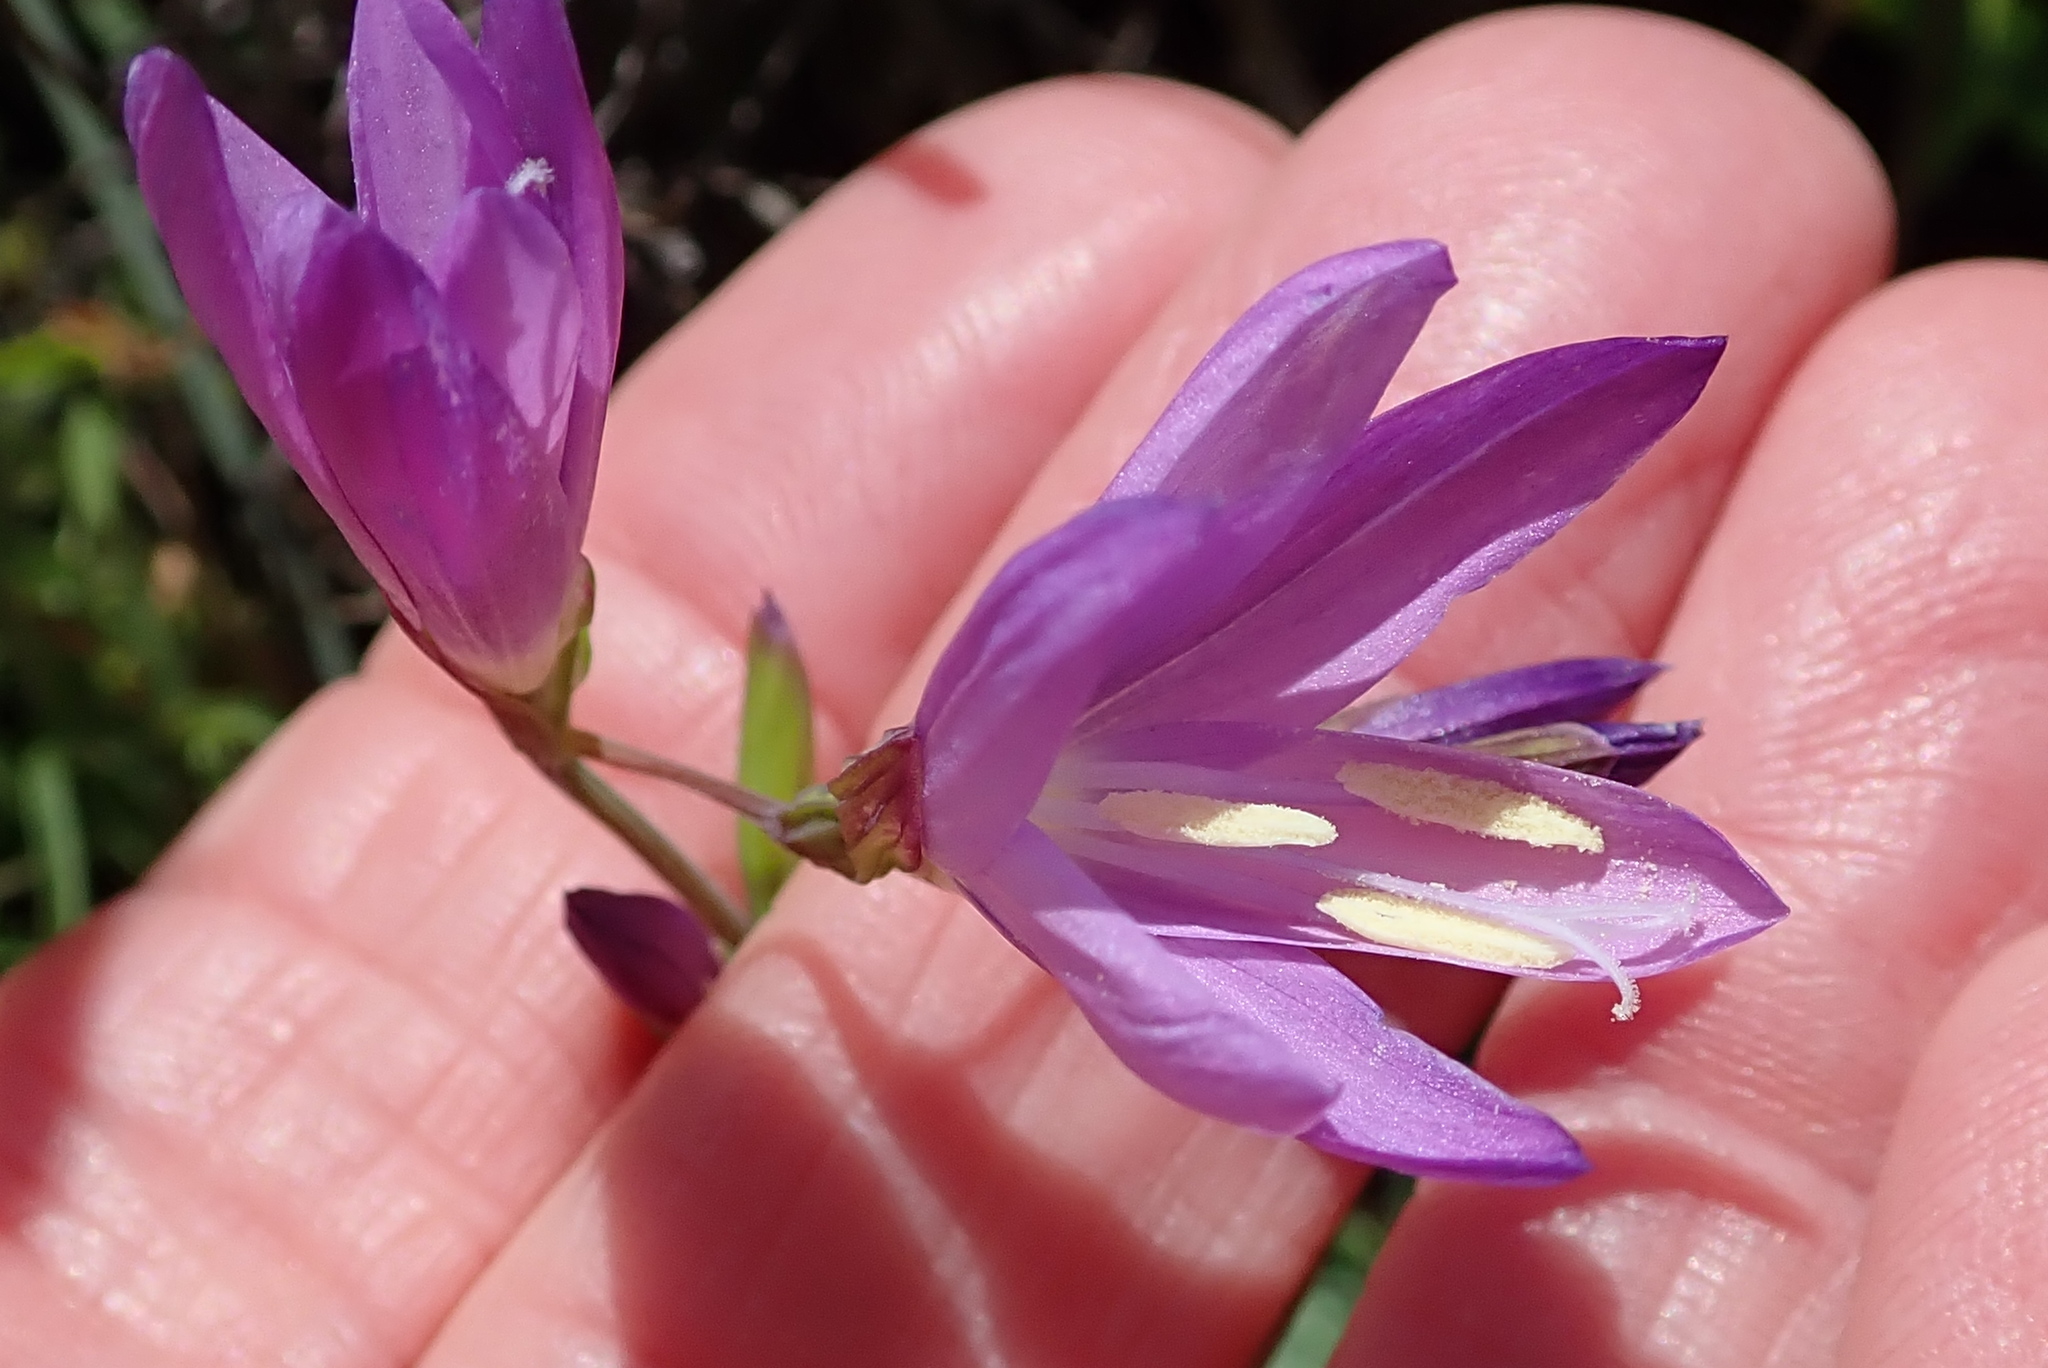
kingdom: Plantae
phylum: Tracheophyta
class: Liliopsida
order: Asparagales
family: Iridaceae
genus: Geissorhiza
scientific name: Geissorhiza inaequalis
